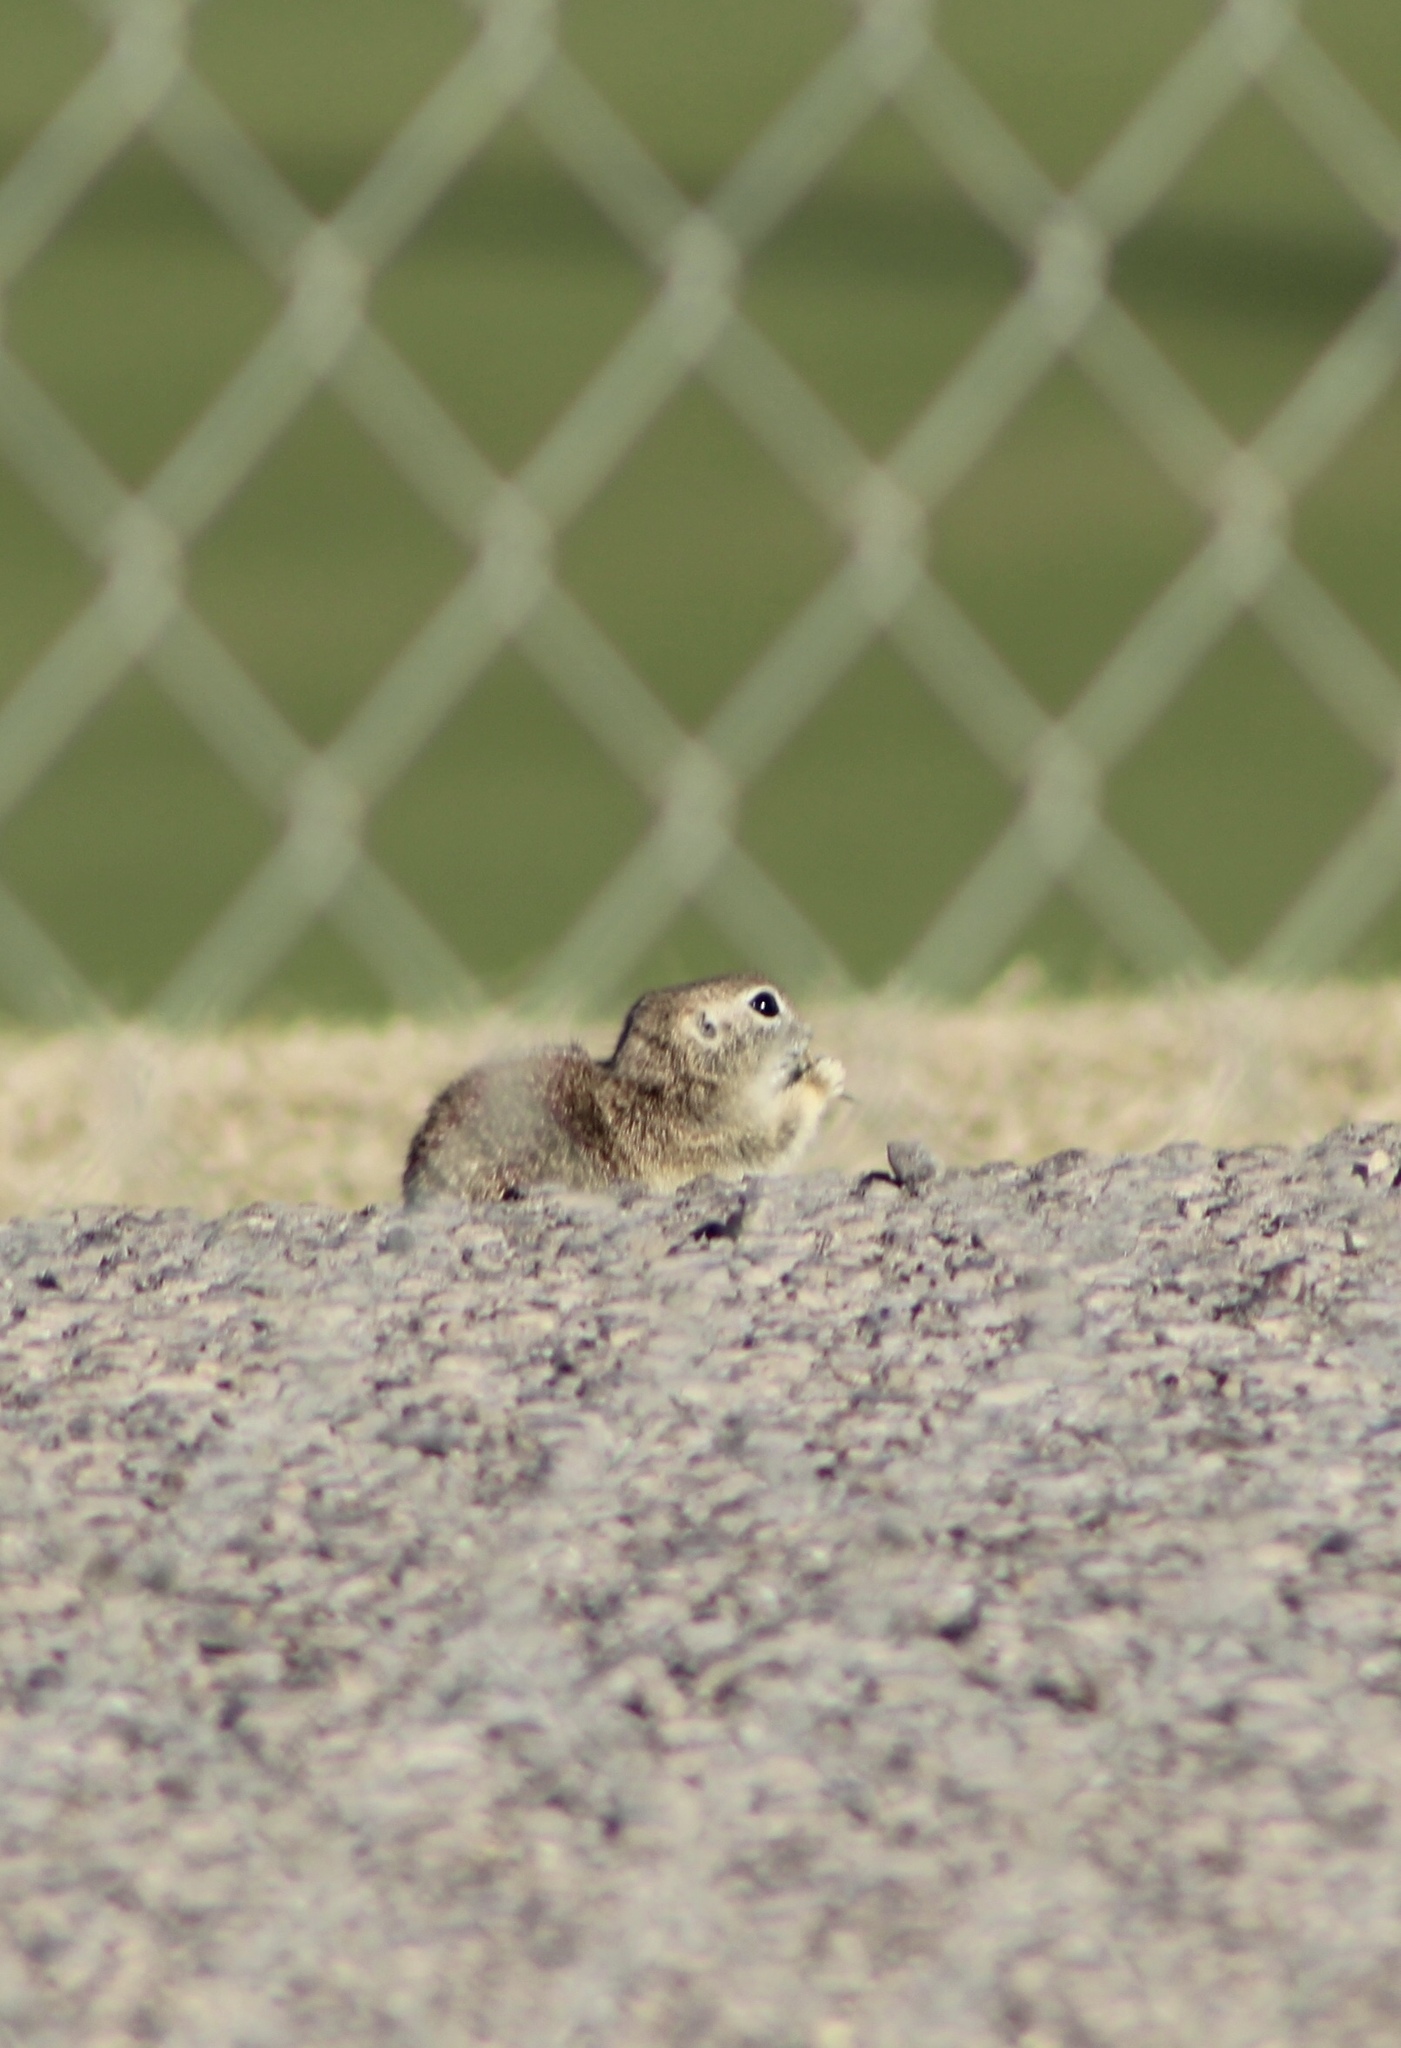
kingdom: Animalia
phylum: Chordata
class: Mammalia
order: Rodentia
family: Sciuridae
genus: Xerospermophilus
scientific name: Xerospermophilus tereticaudus
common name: Round-tailed ground squirrel
